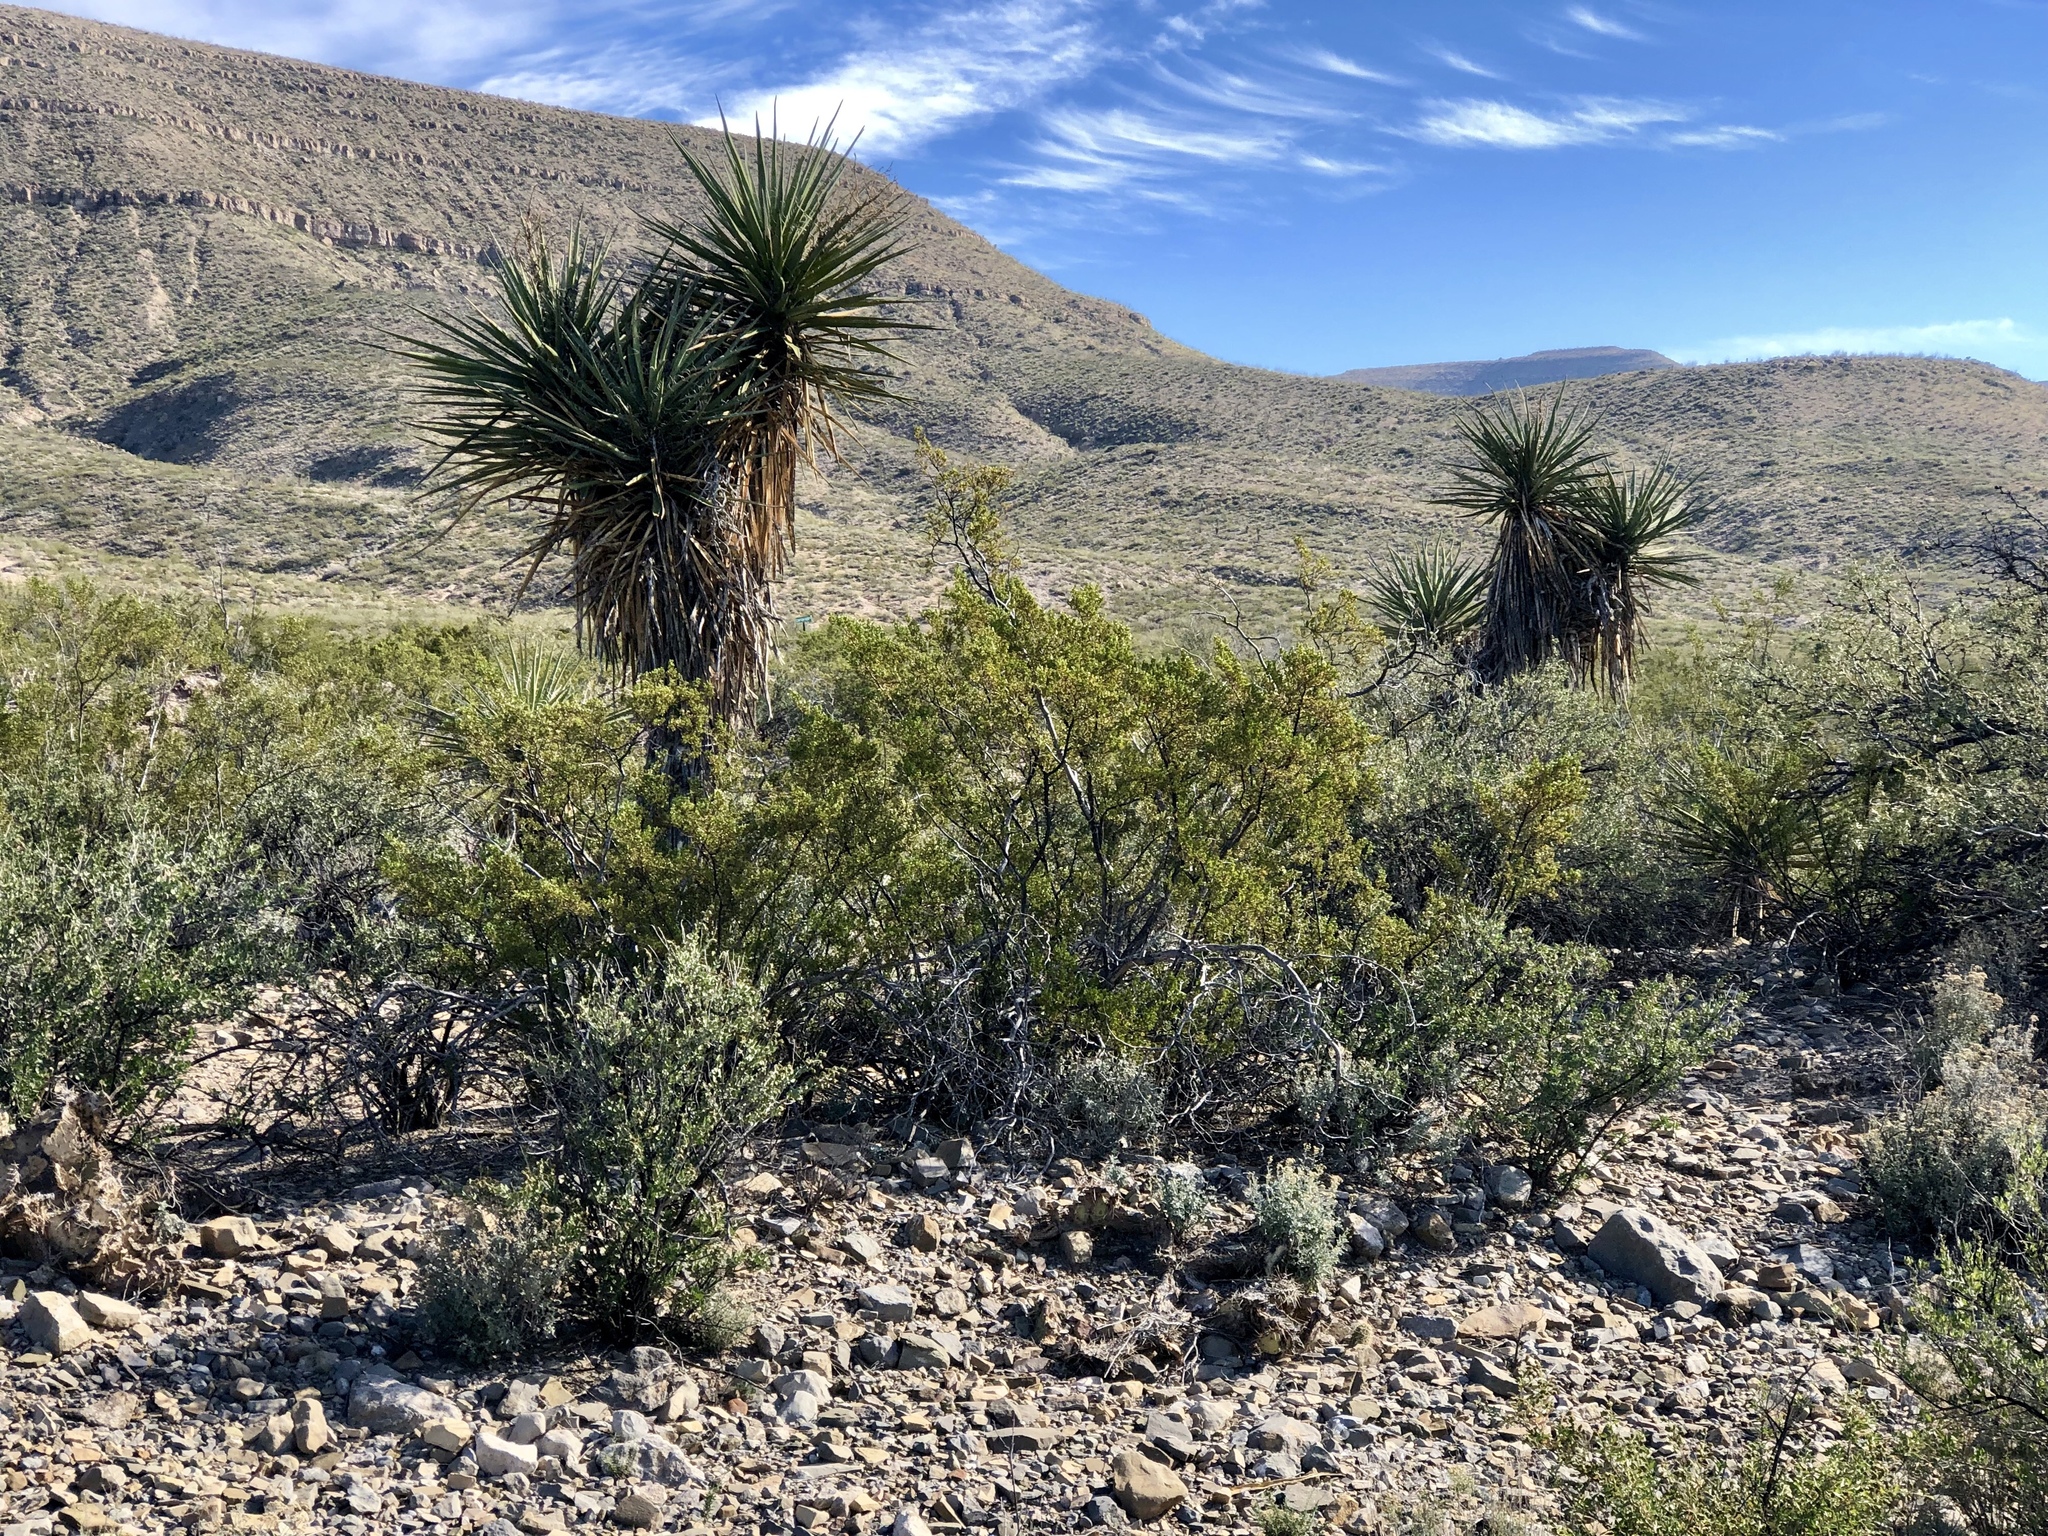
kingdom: Plantae
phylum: Tracheophyta
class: Magnoliopsida
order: Zygophyllales
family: Zygophyllaceae
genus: Larrea
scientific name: Larrea tridentata
